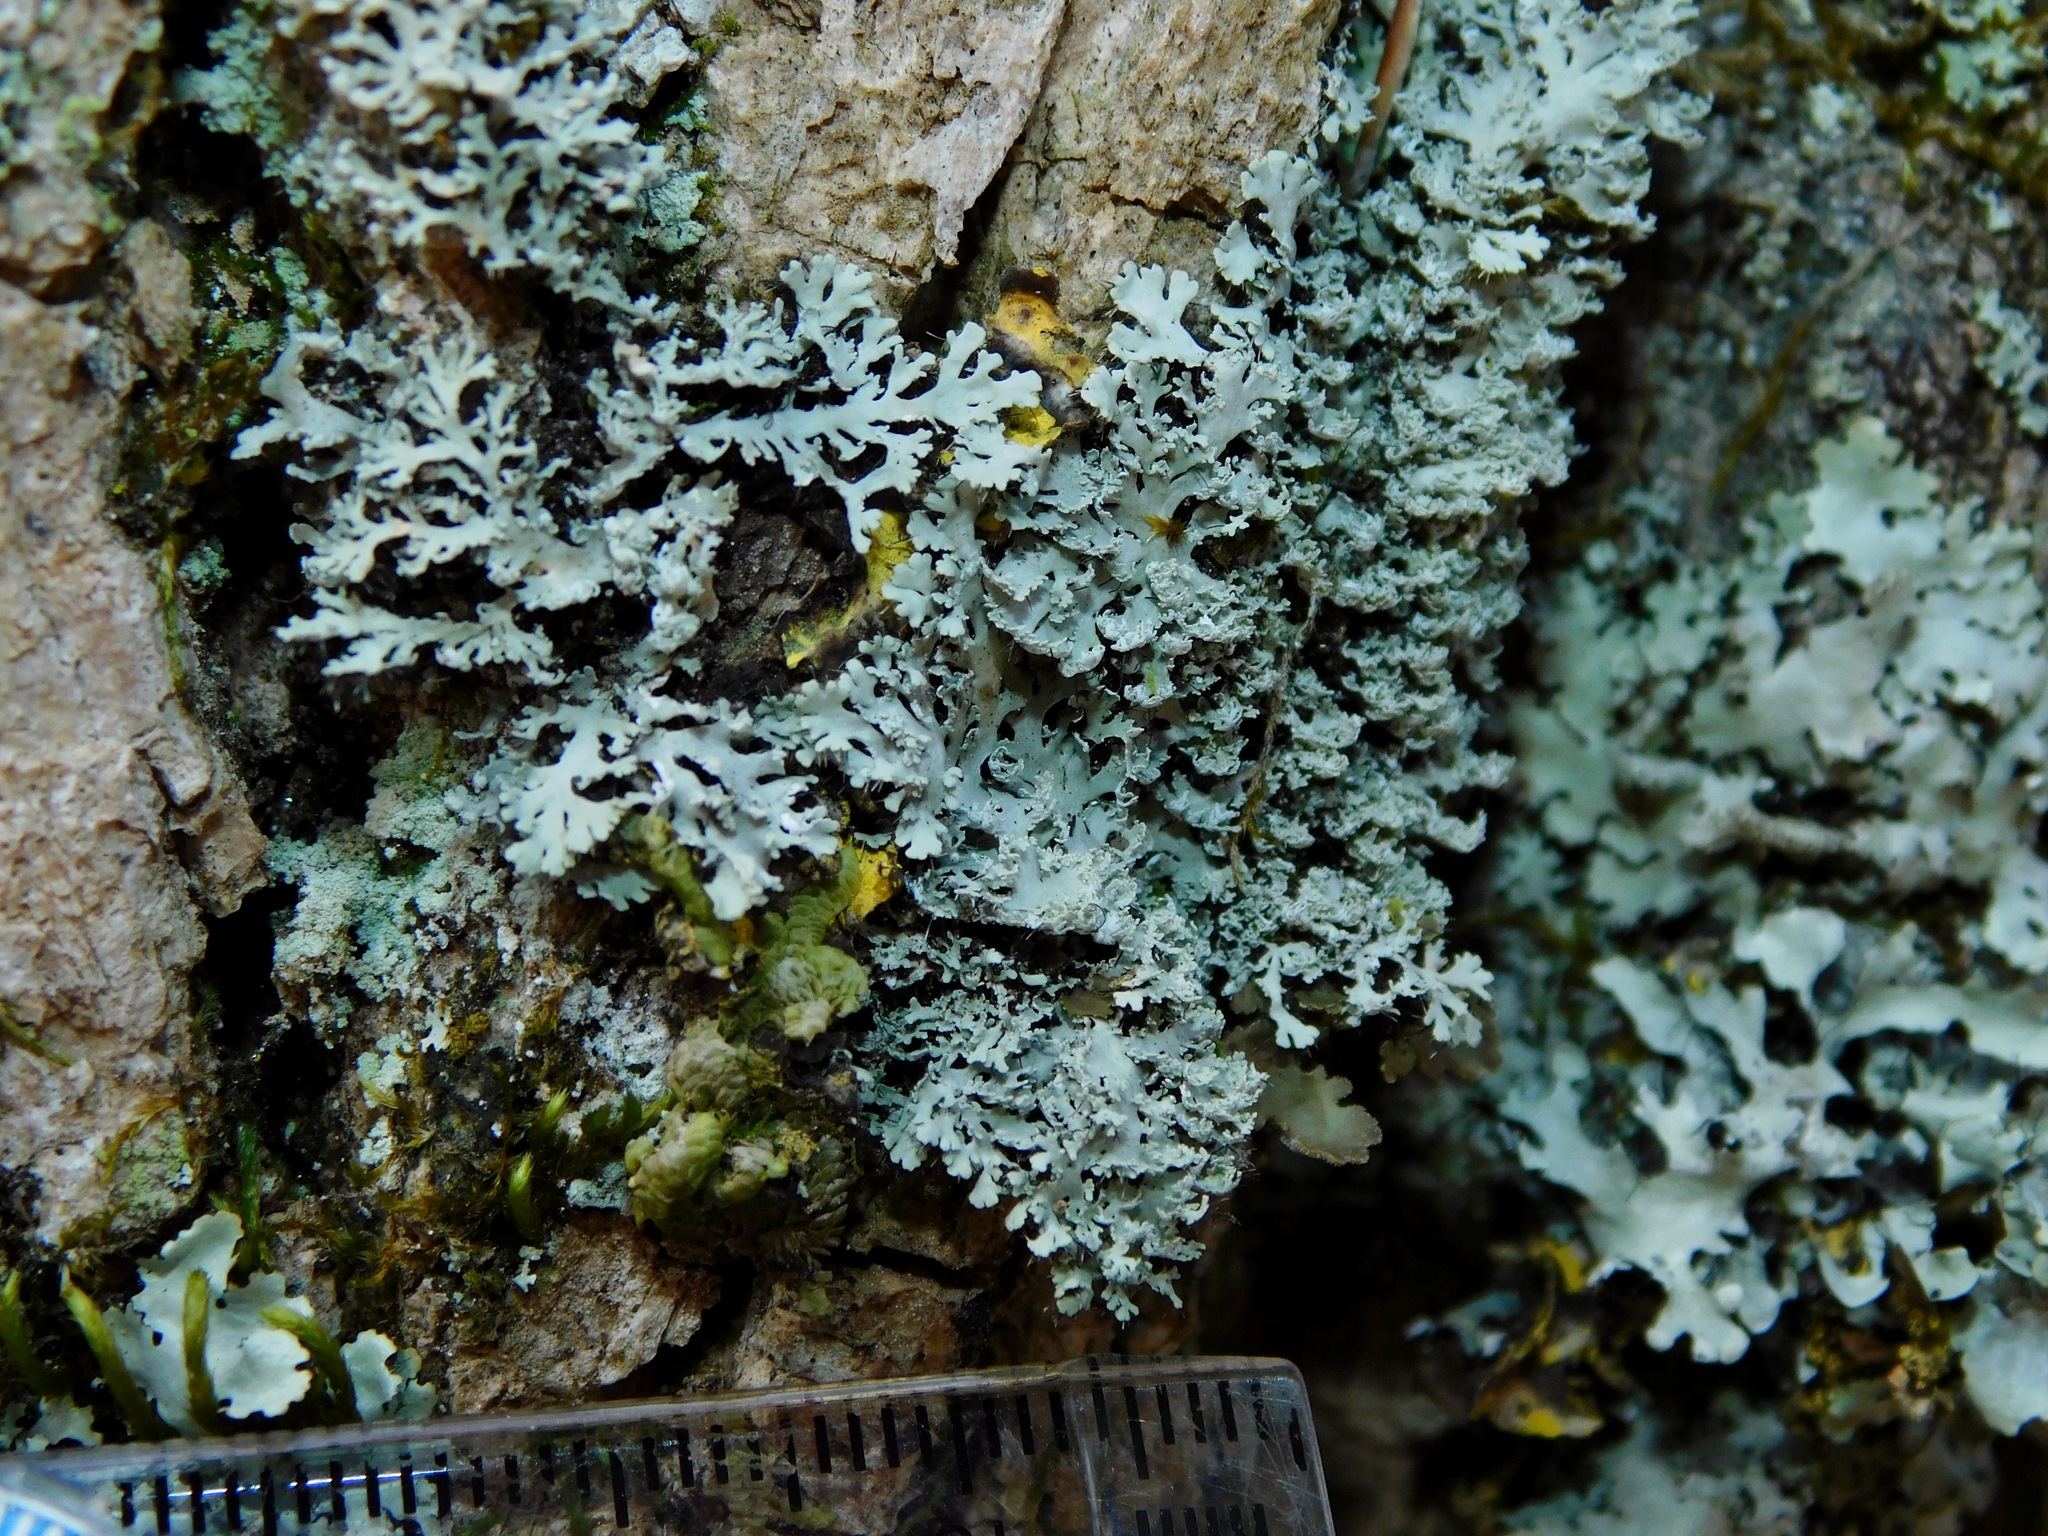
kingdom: Fungi
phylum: Ascomycota
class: Lecanoromycetes
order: Caliciales
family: Physciaceae
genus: Polyblastidium
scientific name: Polyblastidium squamulosum
